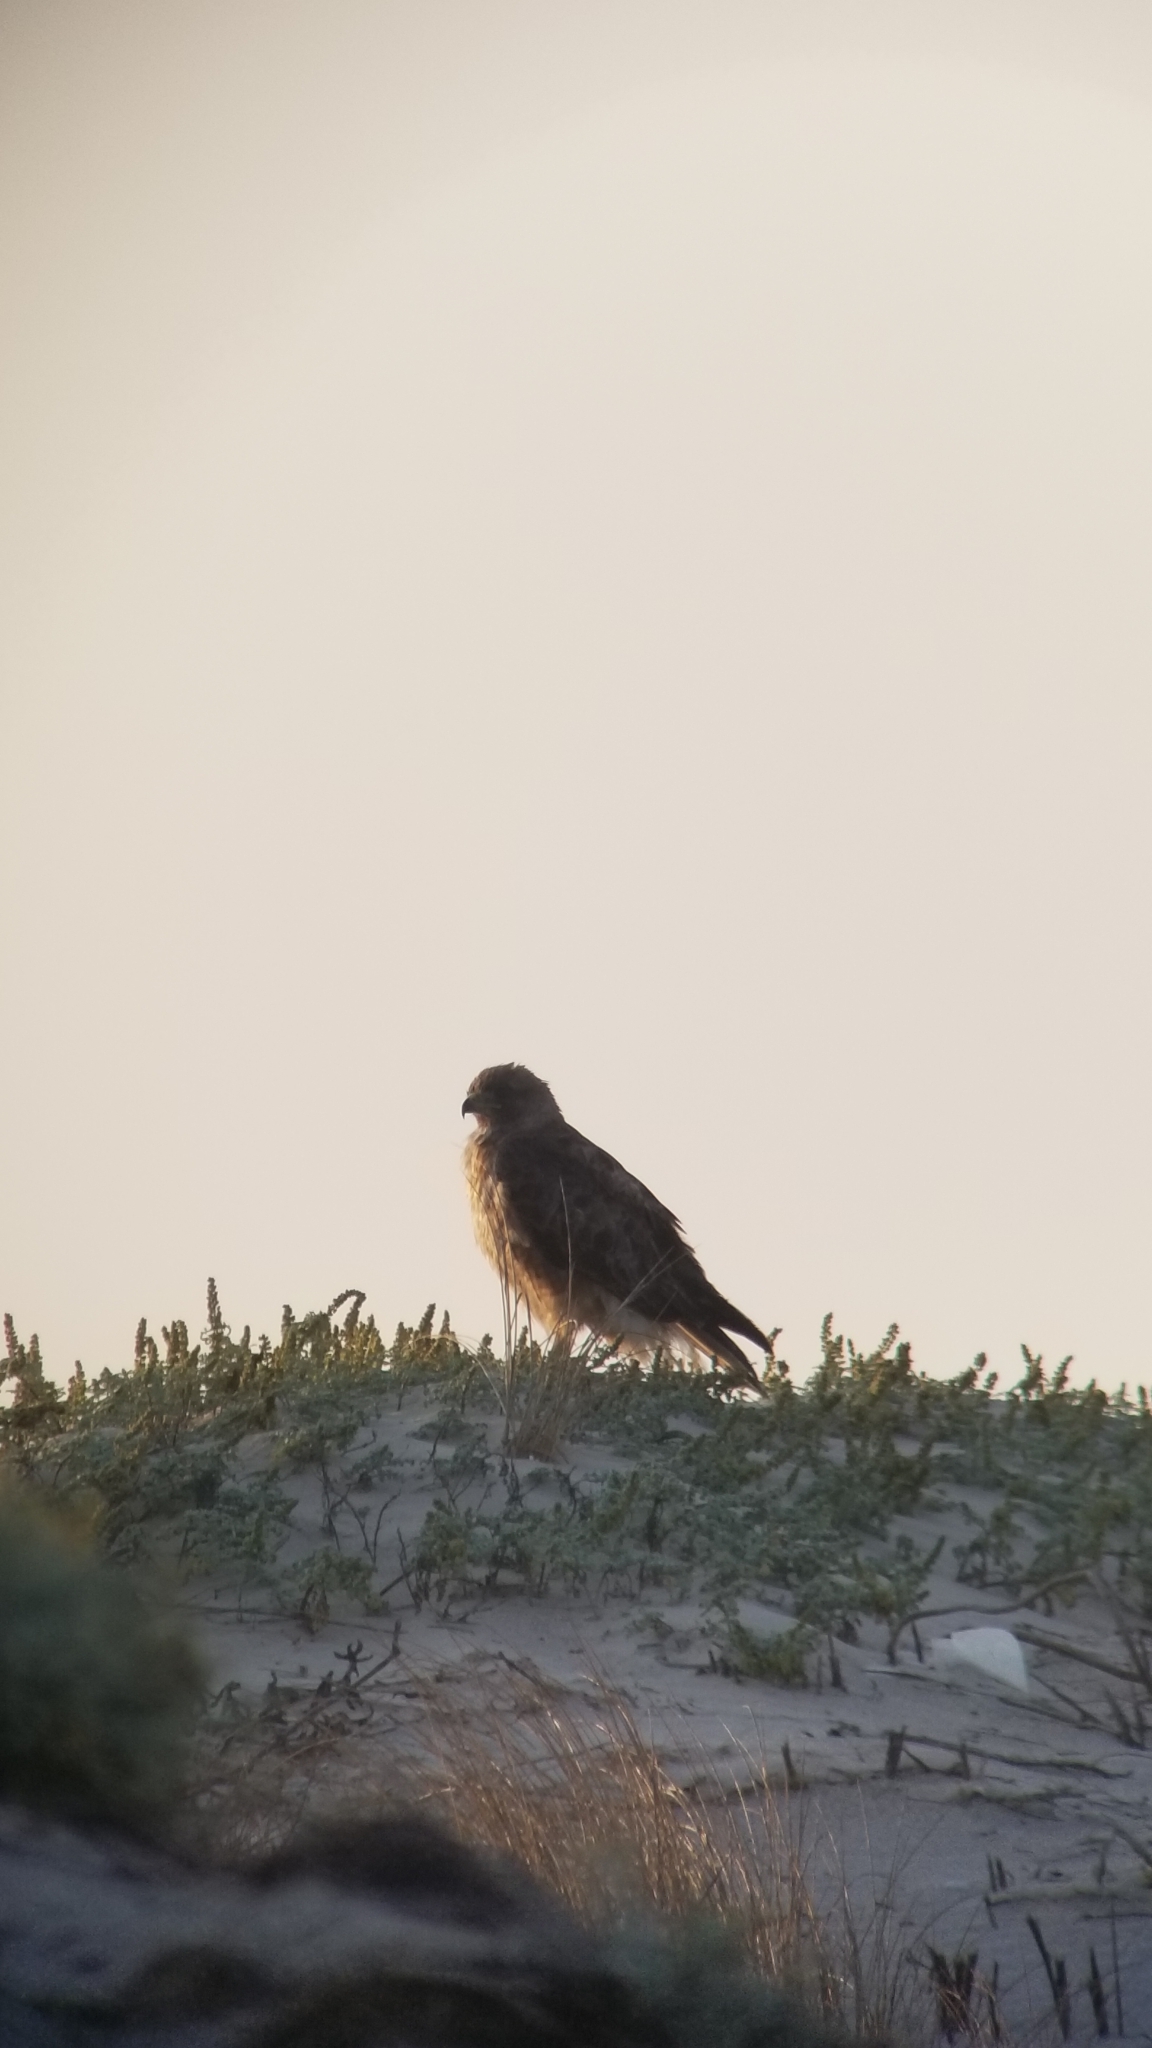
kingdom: Animalia
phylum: Chordata
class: Aves
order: Accipitriformes
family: Accipitridae
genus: Buteo
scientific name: Buteo jamaicensis
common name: Red-tailed hawk
